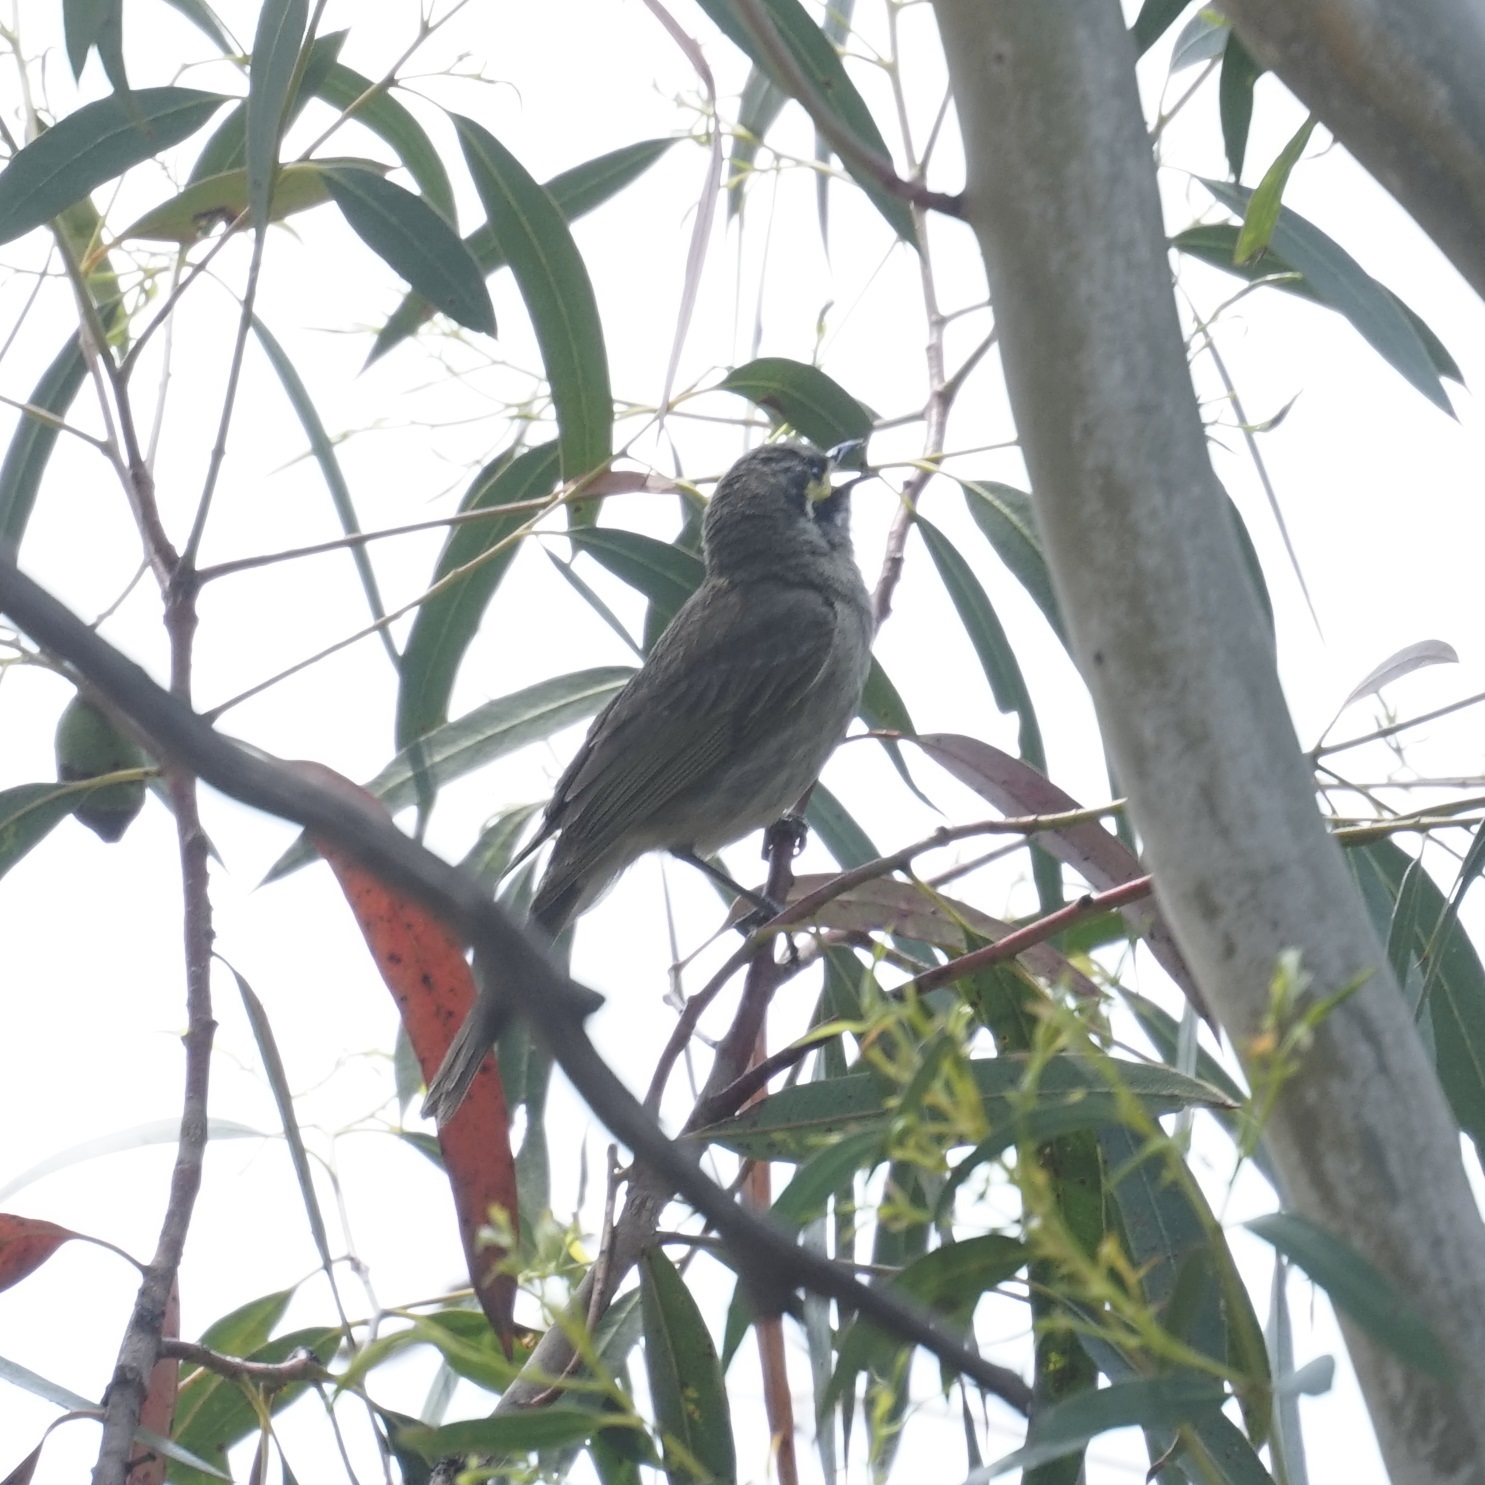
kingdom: Animalia
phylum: Chordata
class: Aves
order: Passeriformes
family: Meliphagidae
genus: Caligavis
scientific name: Caligavis chrysops
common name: Yellow-faced honeyeater
